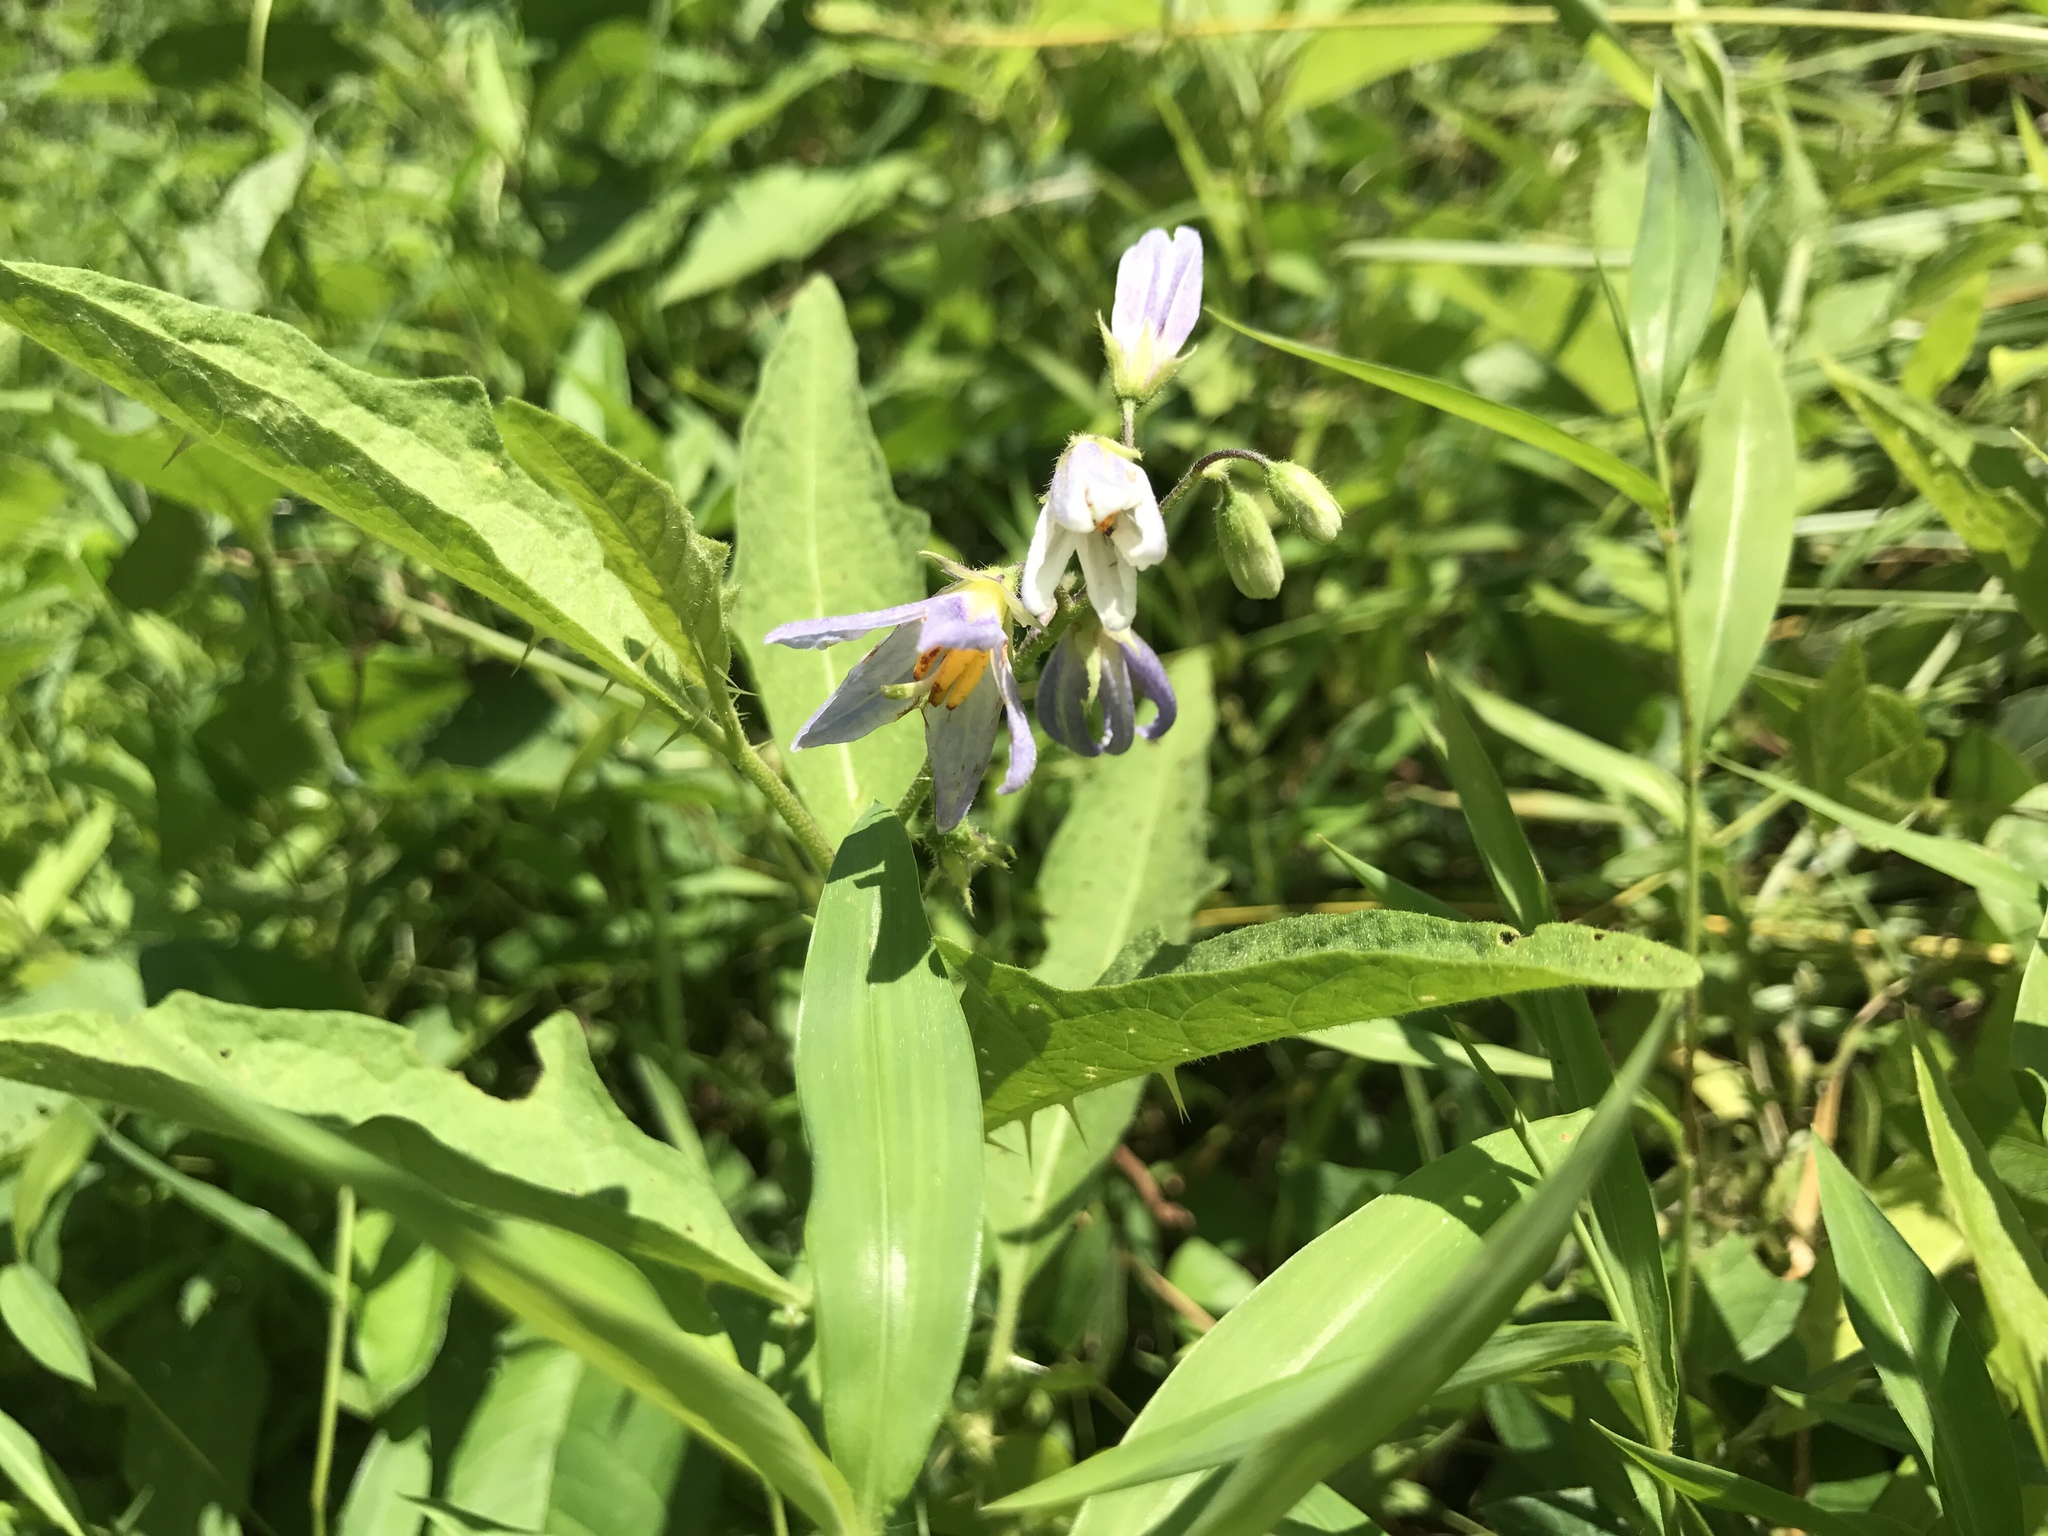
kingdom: Plantae
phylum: Tracheophyta
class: Magnoliopsida
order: Solanales
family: Solanaceae
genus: Solanum
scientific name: Solanum carolinense
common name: Horse-nettle
